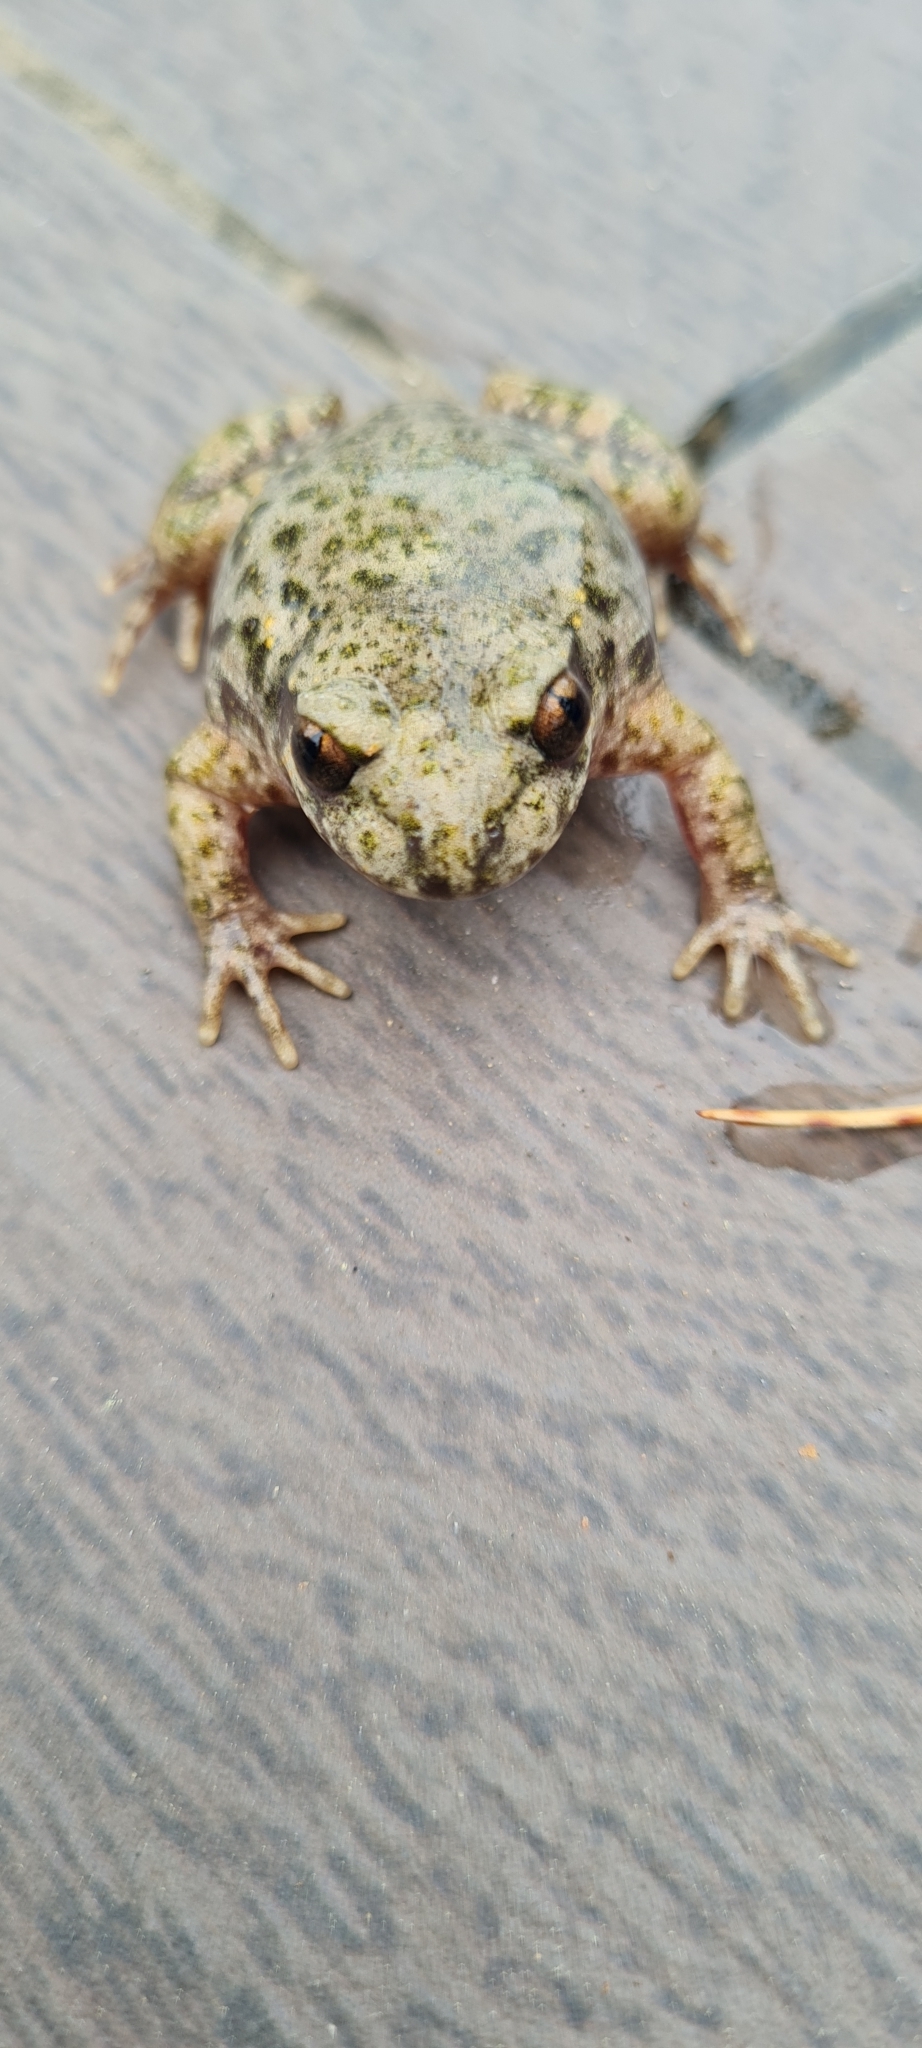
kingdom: Animalia
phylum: Chordata
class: Amphibia
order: Anura
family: Alytidae
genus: Alytes
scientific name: Alytes obstetricans
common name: Midwife toad
